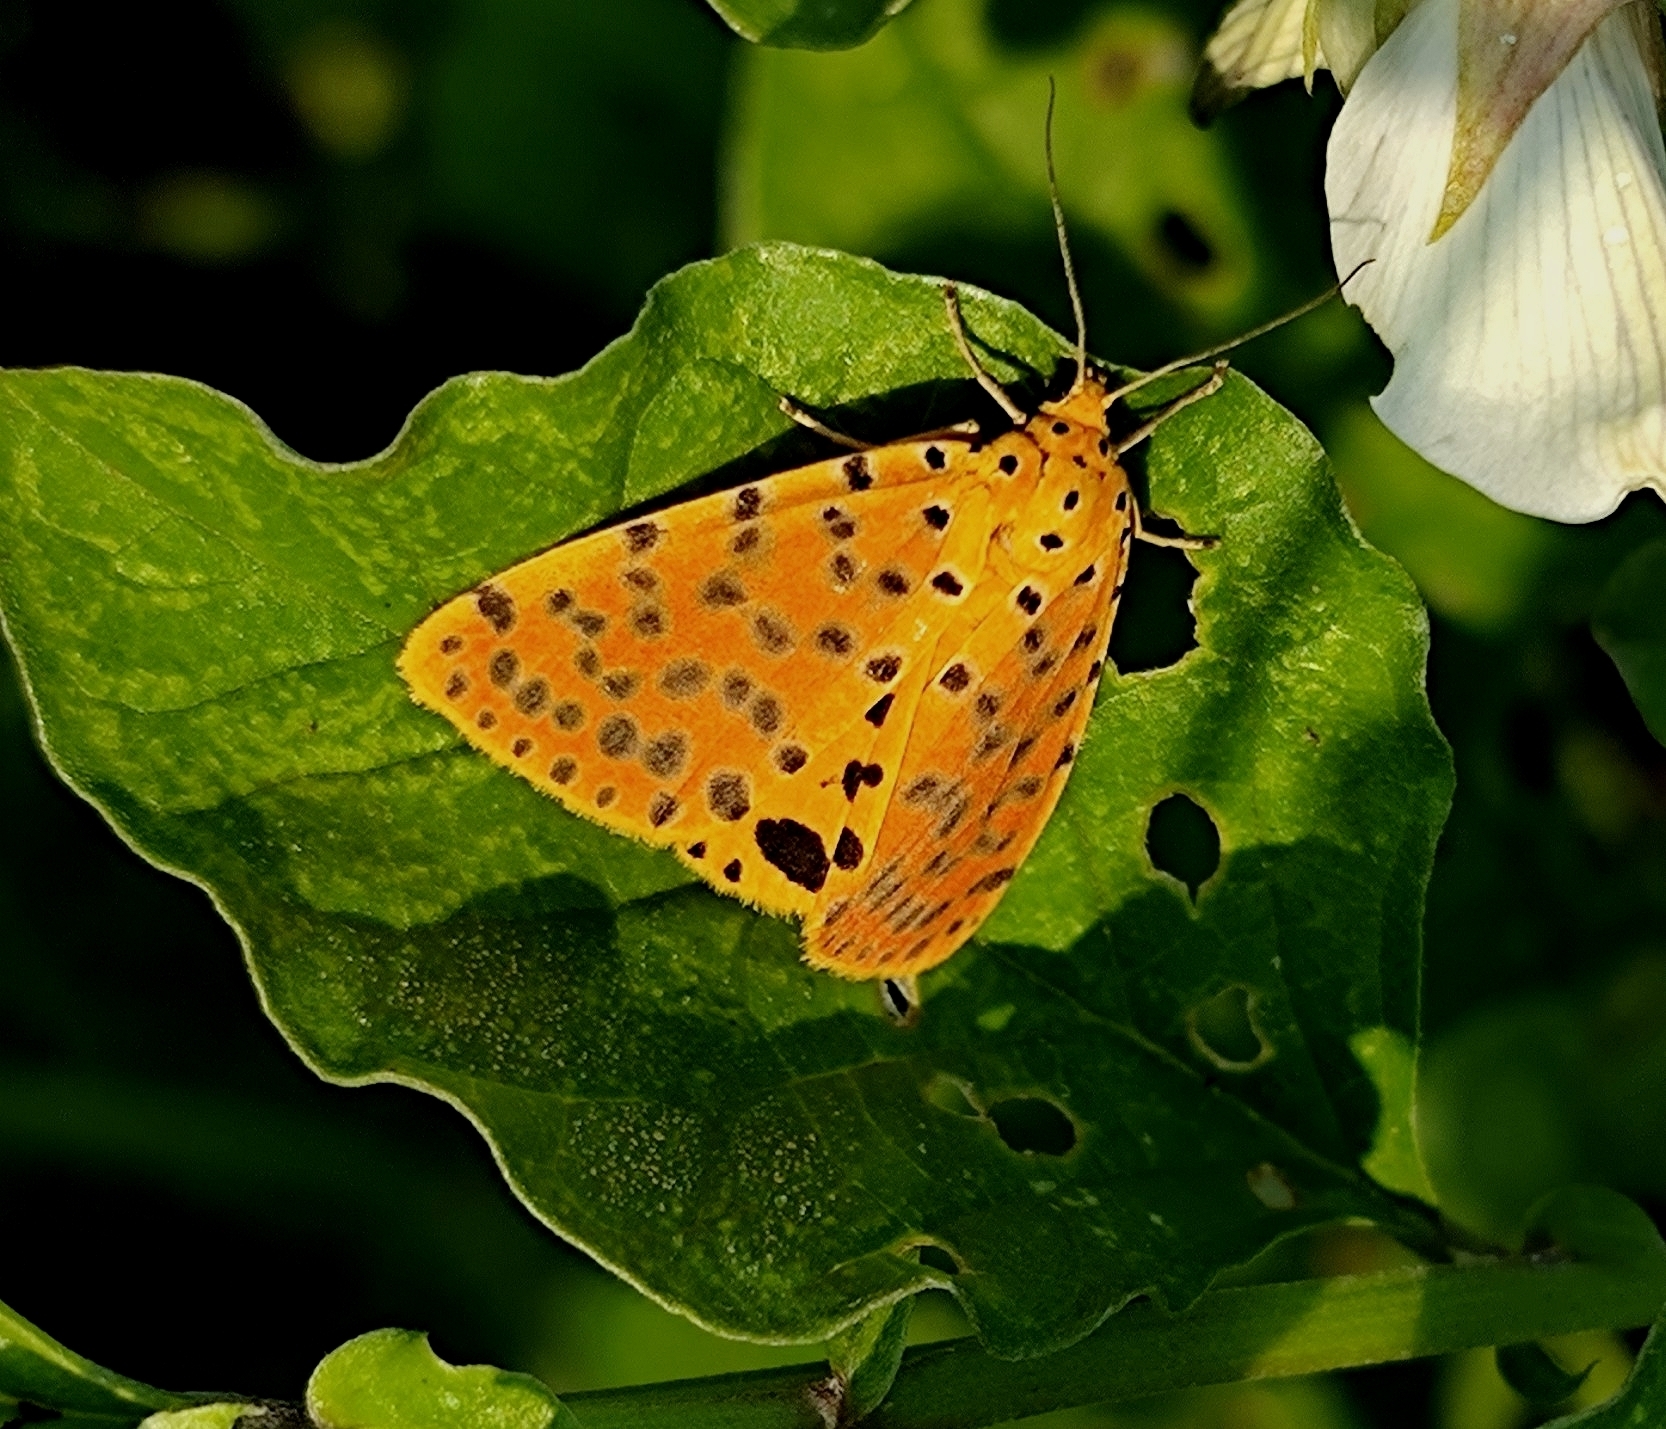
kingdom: Animalia
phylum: Arthropoda
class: Insecta
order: Lepidoptera
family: Erebidae
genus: Argina
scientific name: Argina astrea
